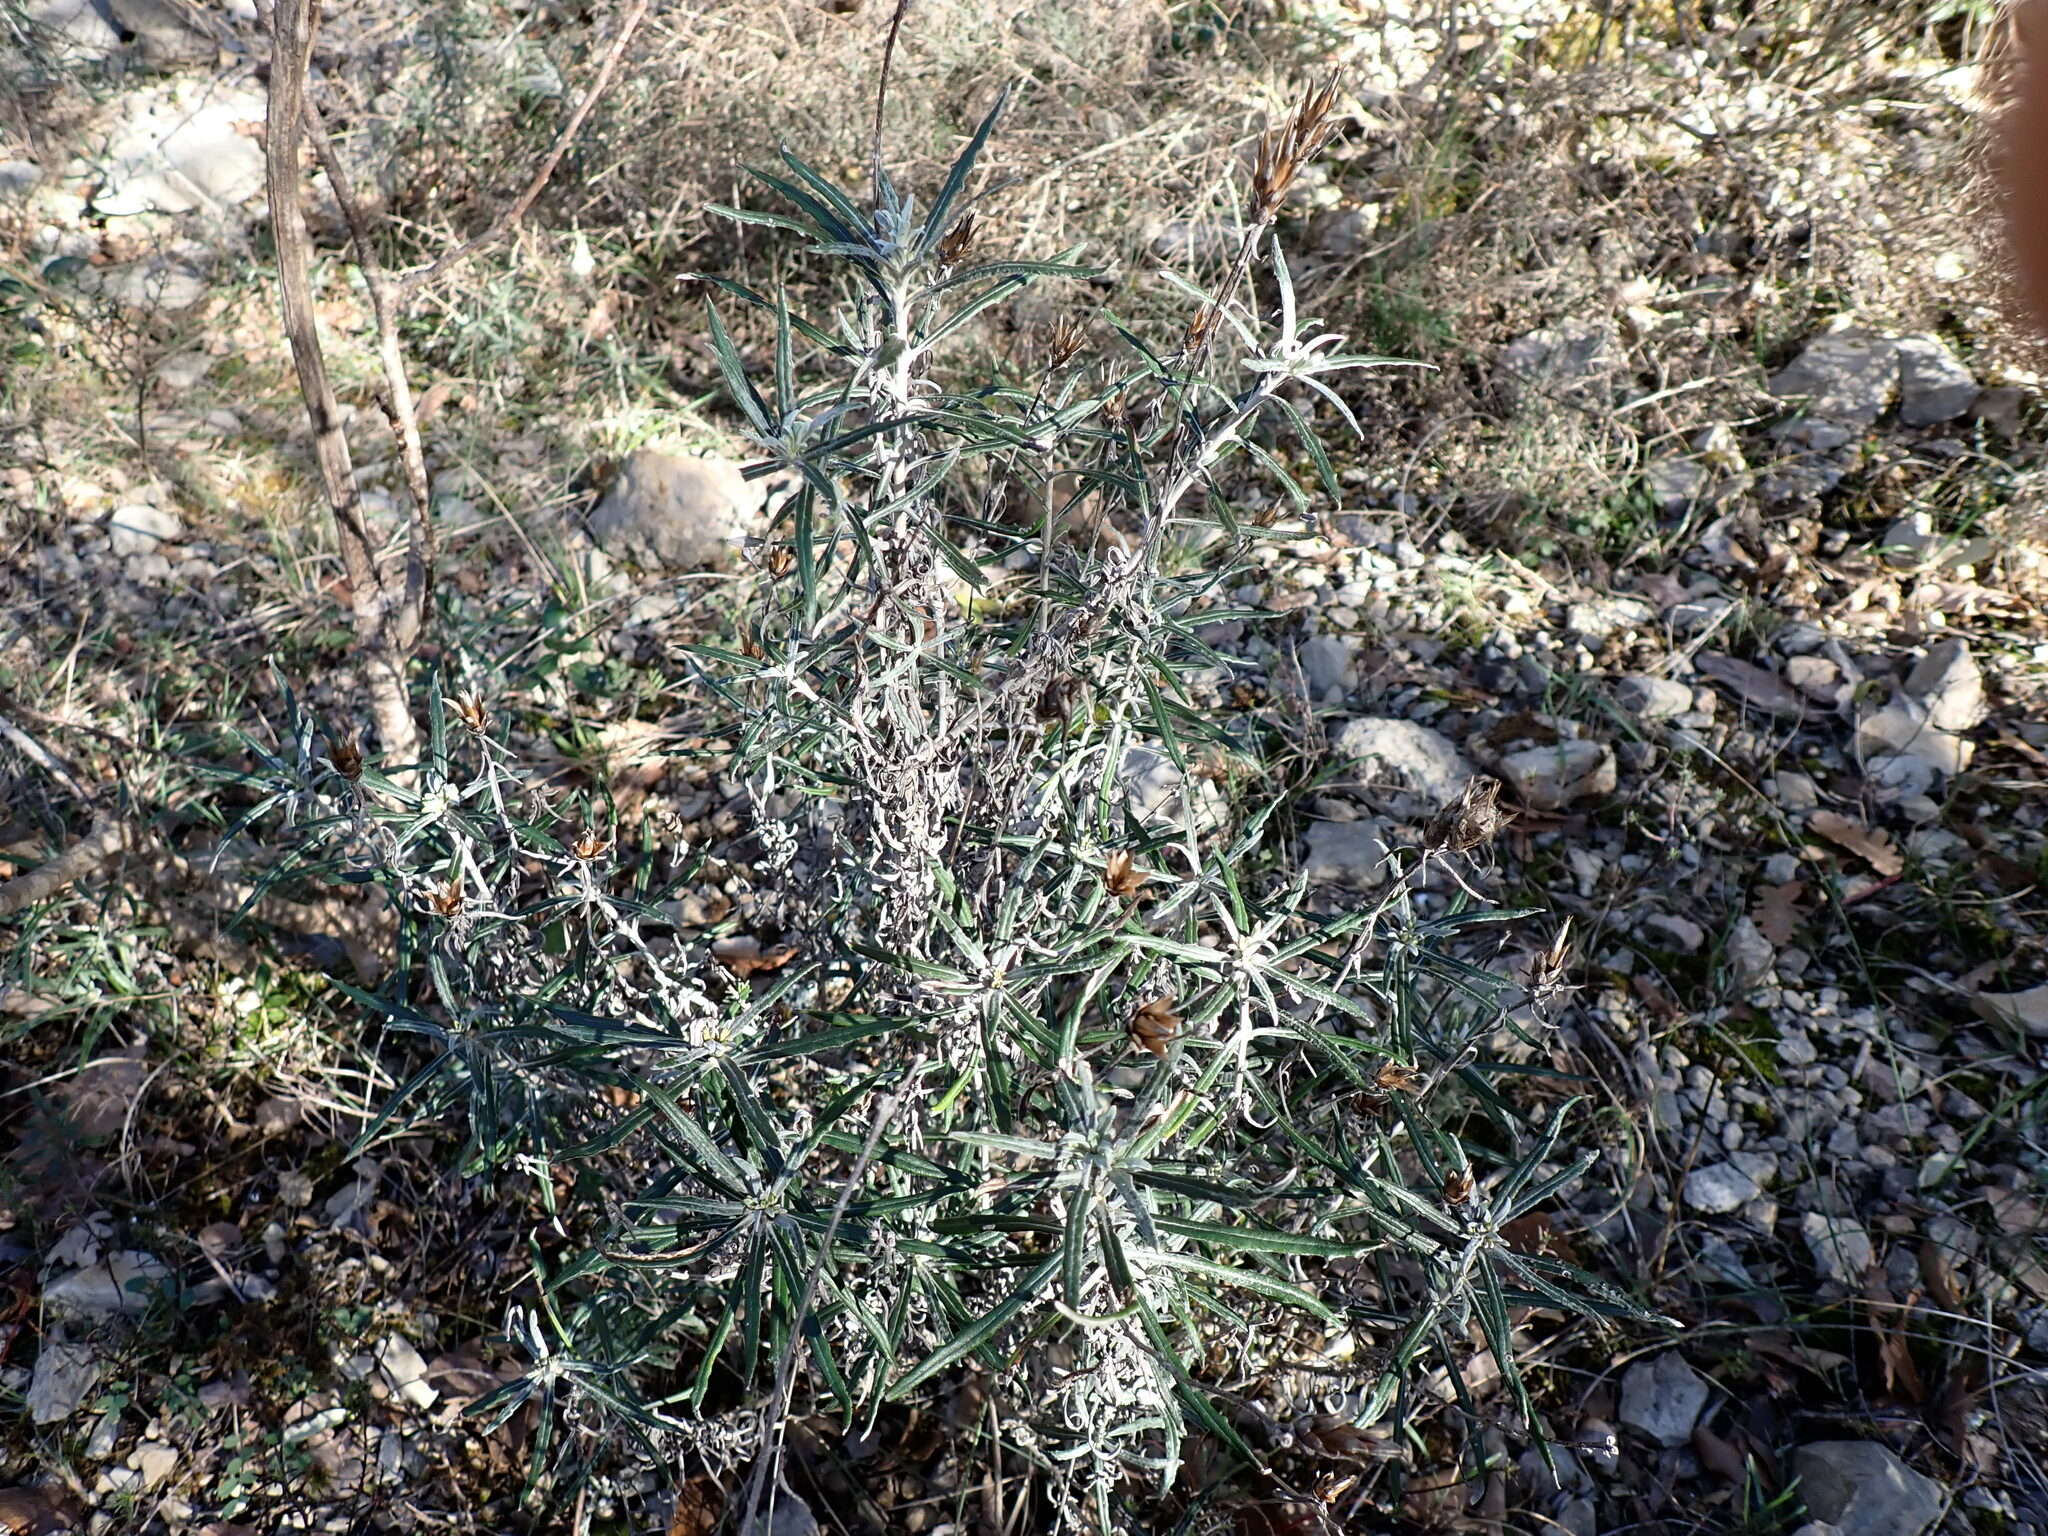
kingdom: Plantae
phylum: Tracheophyta
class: Magnoliopsida
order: Asterales
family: Asteraceae
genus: Staehelina
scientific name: Staehelina dubia
